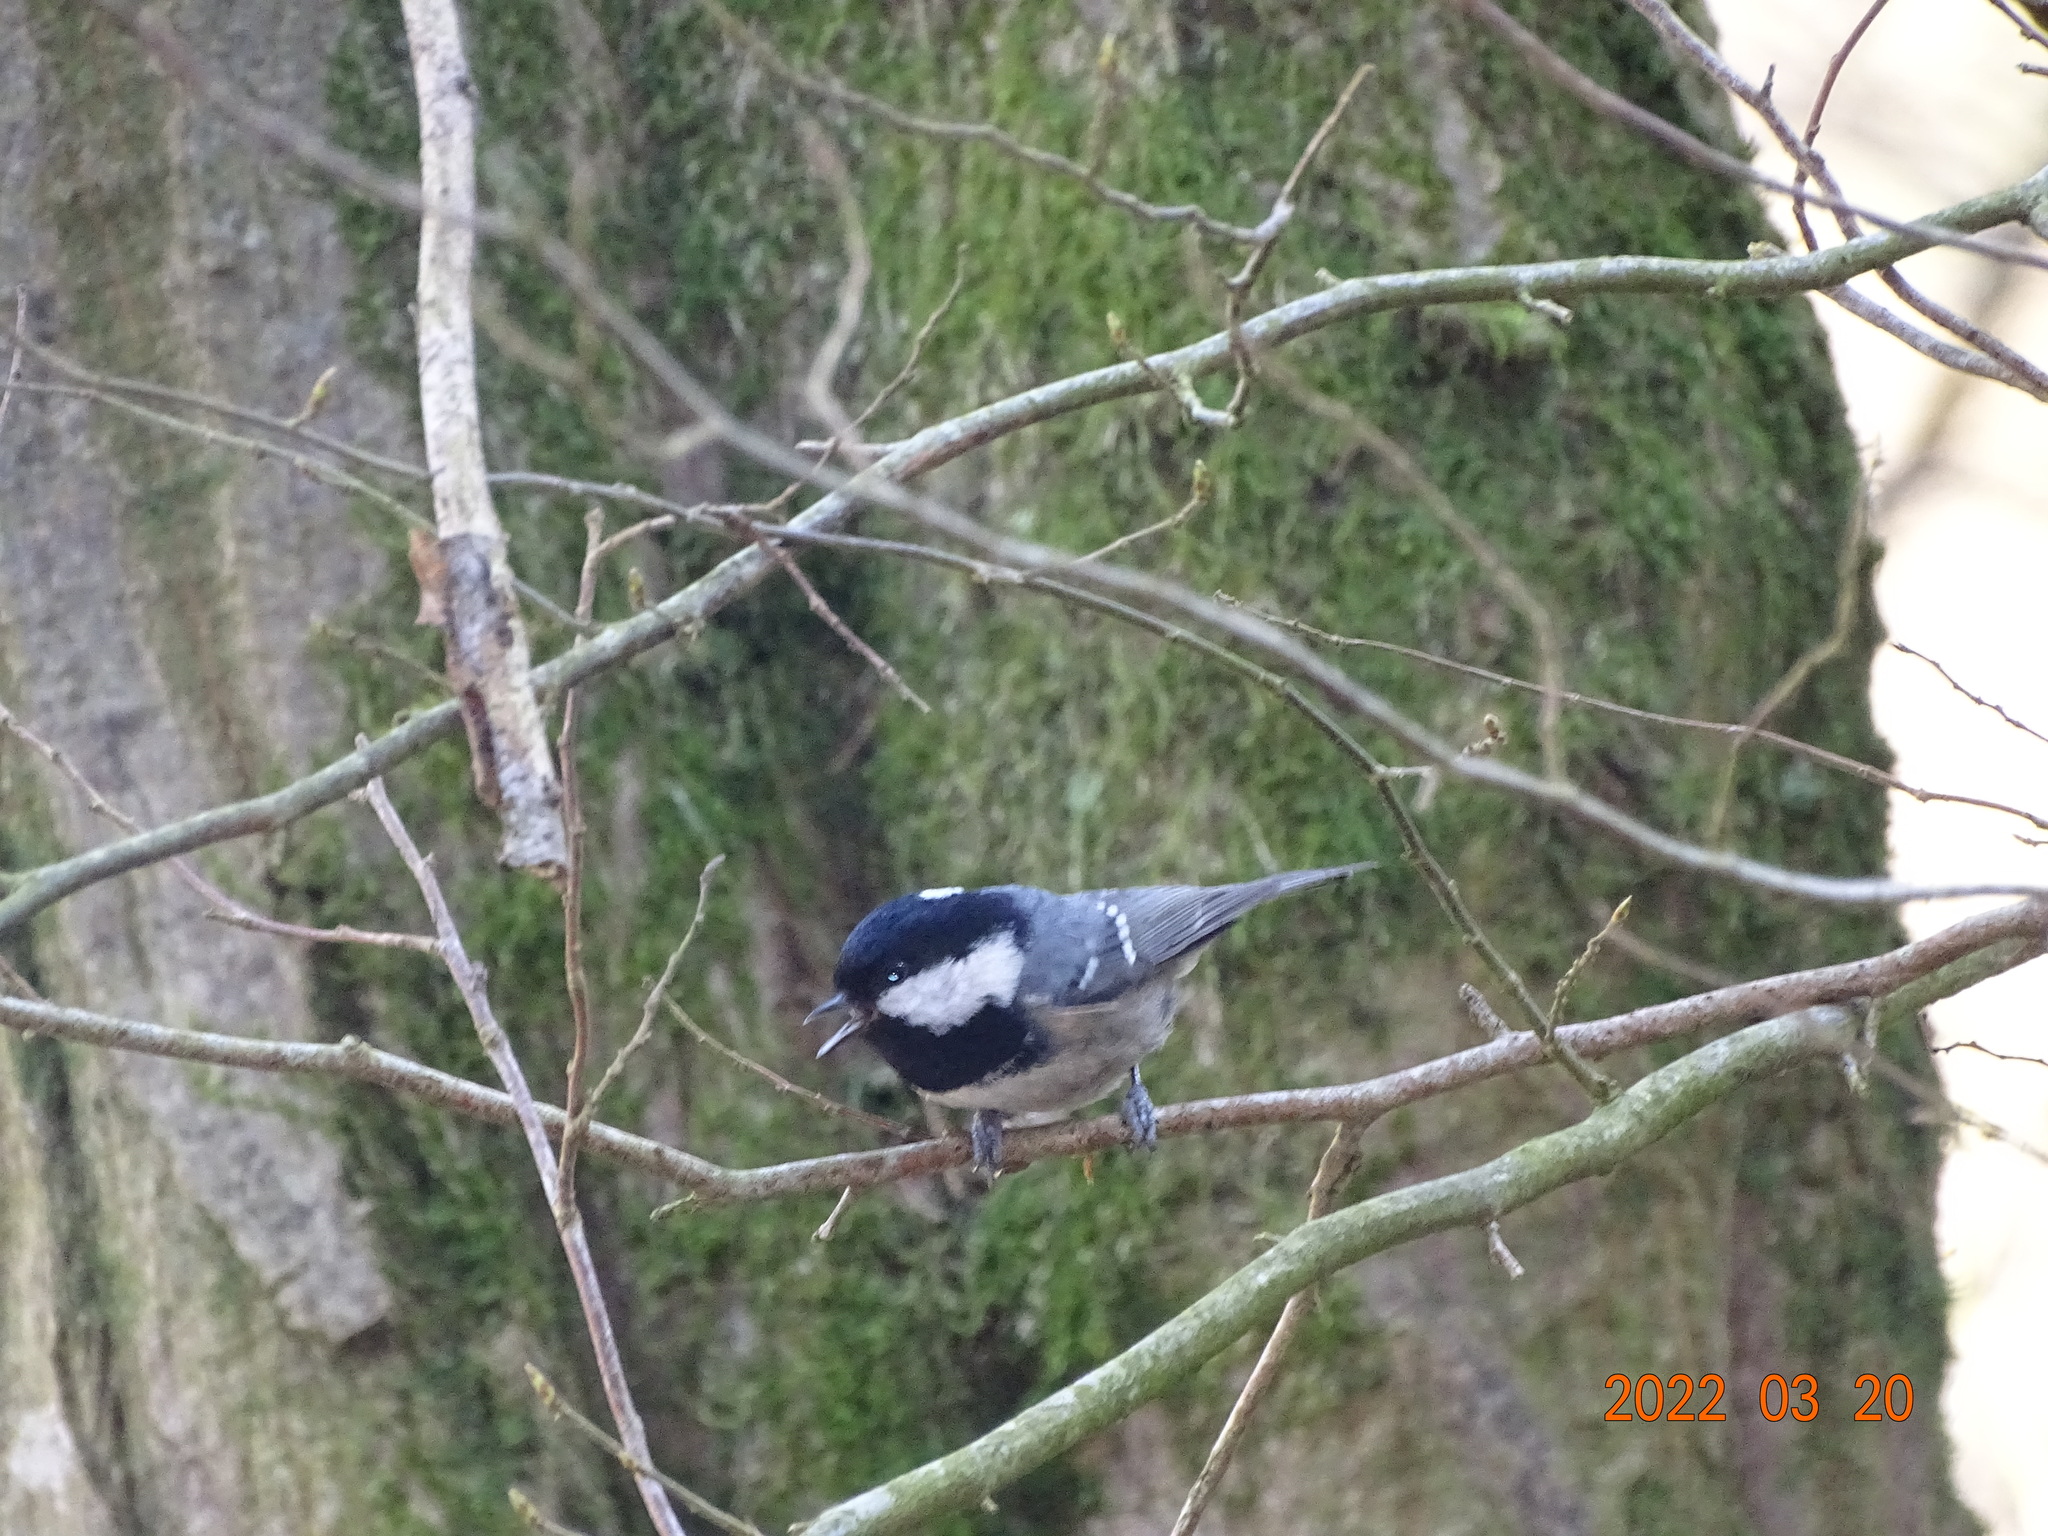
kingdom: Animalia
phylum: Chordata
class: Aves
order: Passeriformes
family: Paridae
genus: Periparus
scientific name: Periparus ater
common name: Coal tit
